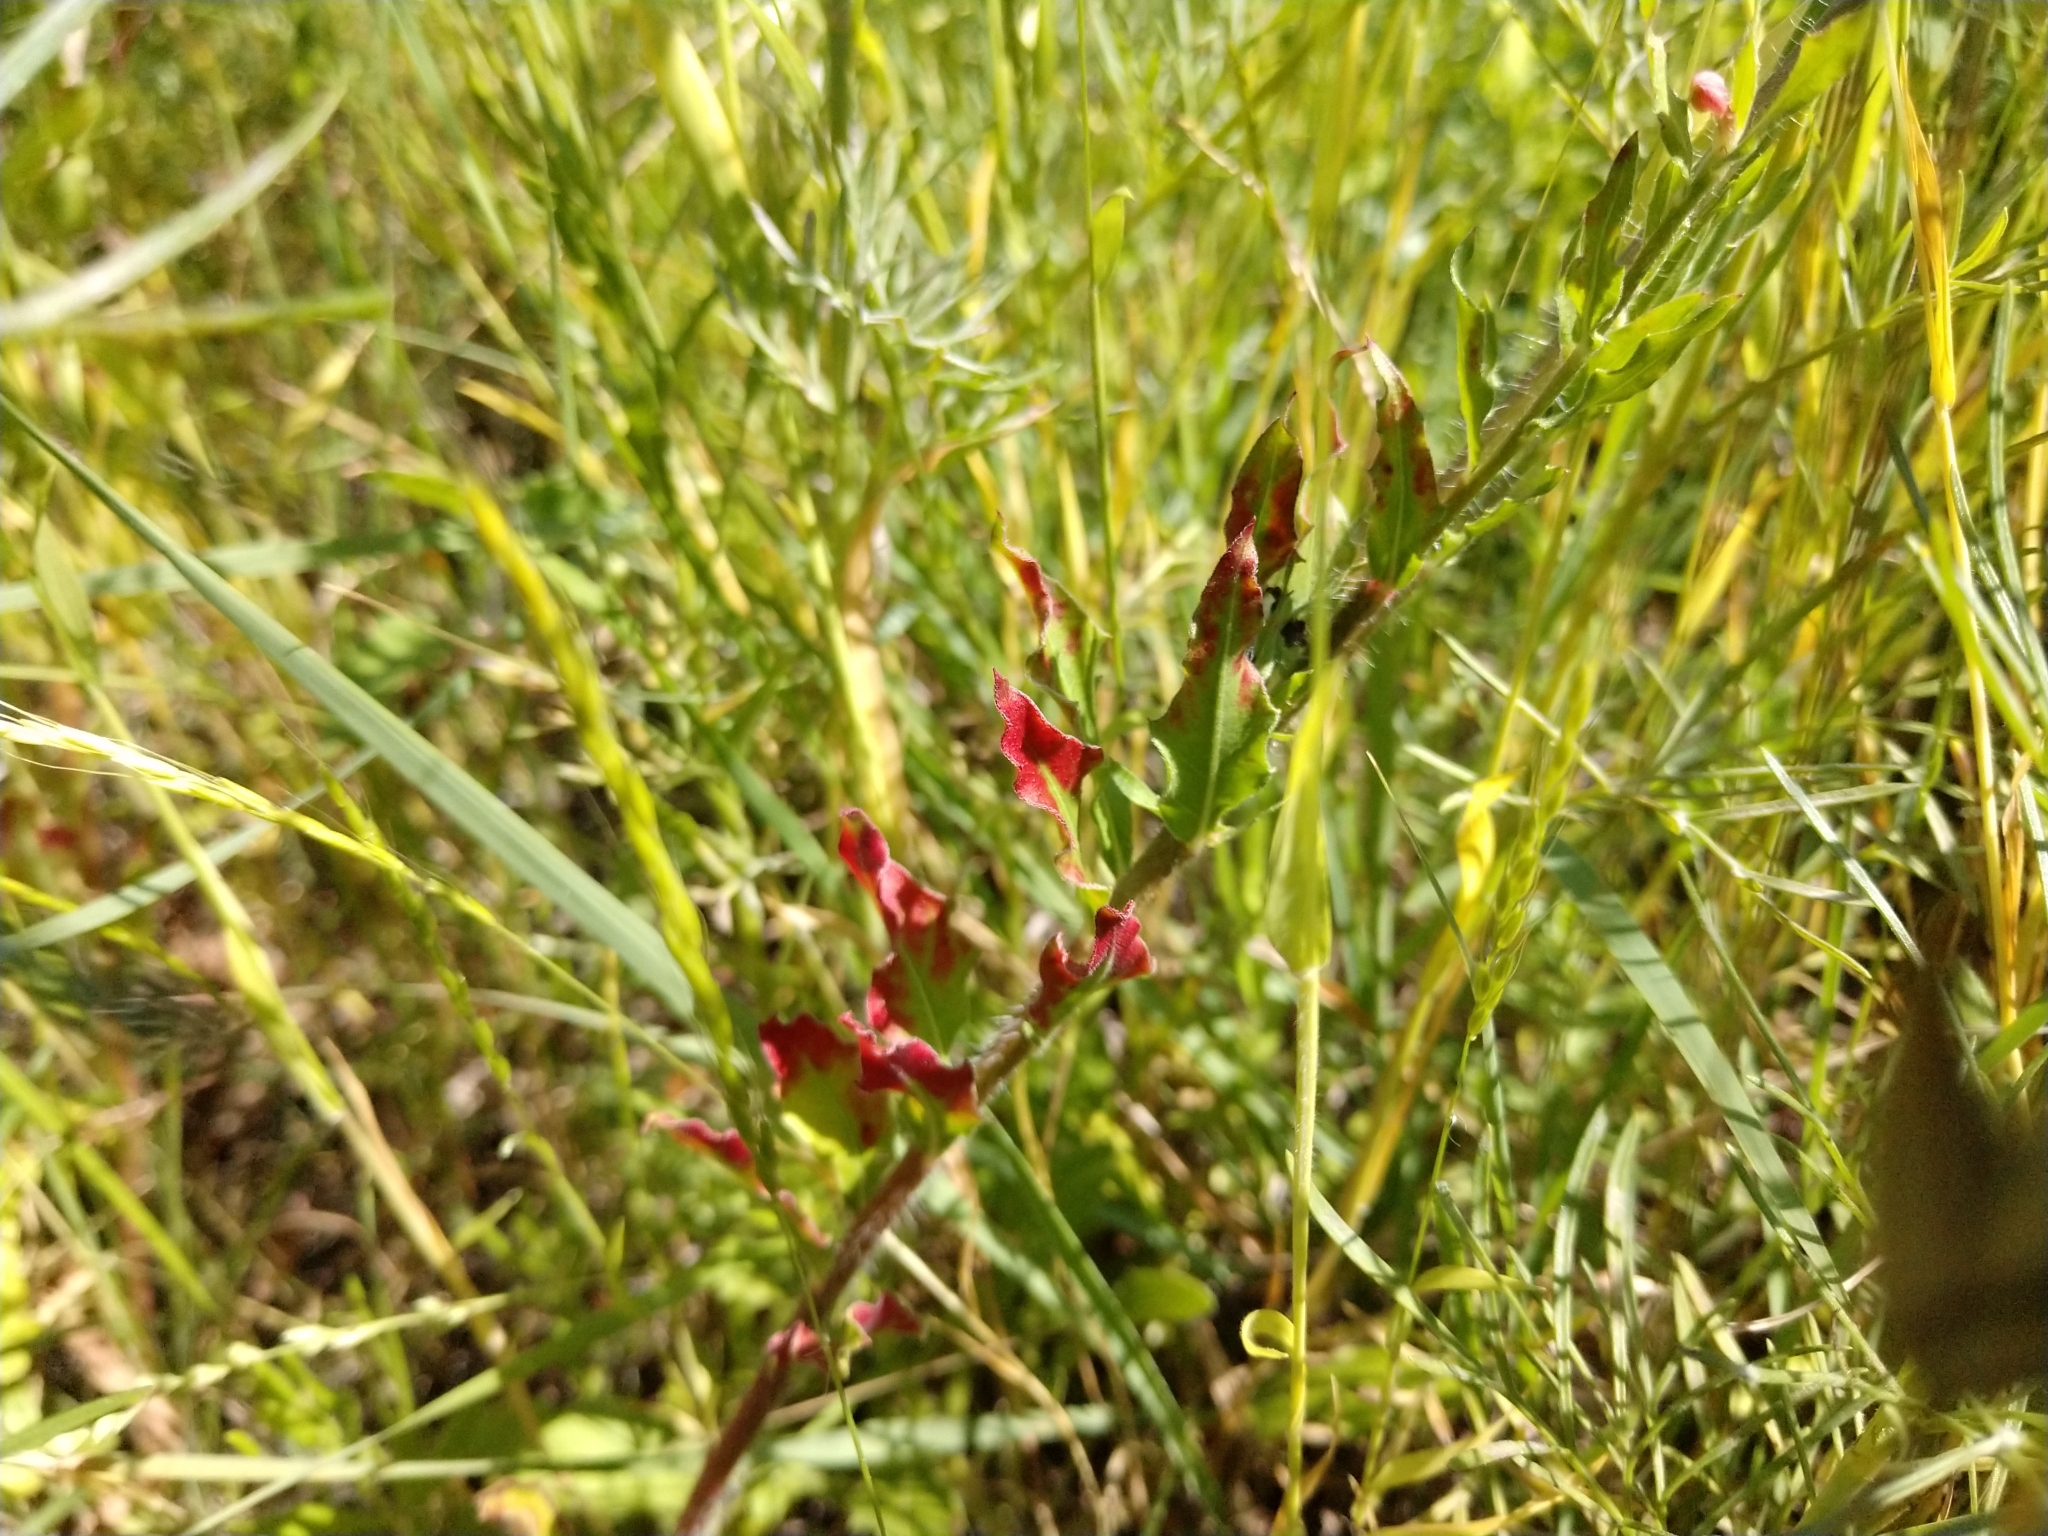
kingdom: Plantae
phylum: Tracheophyta
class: Magnoliopsida
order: Myrtales
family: Onagraceae
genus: Oenothera
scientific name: Oenothera suffulta
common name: Kisses
